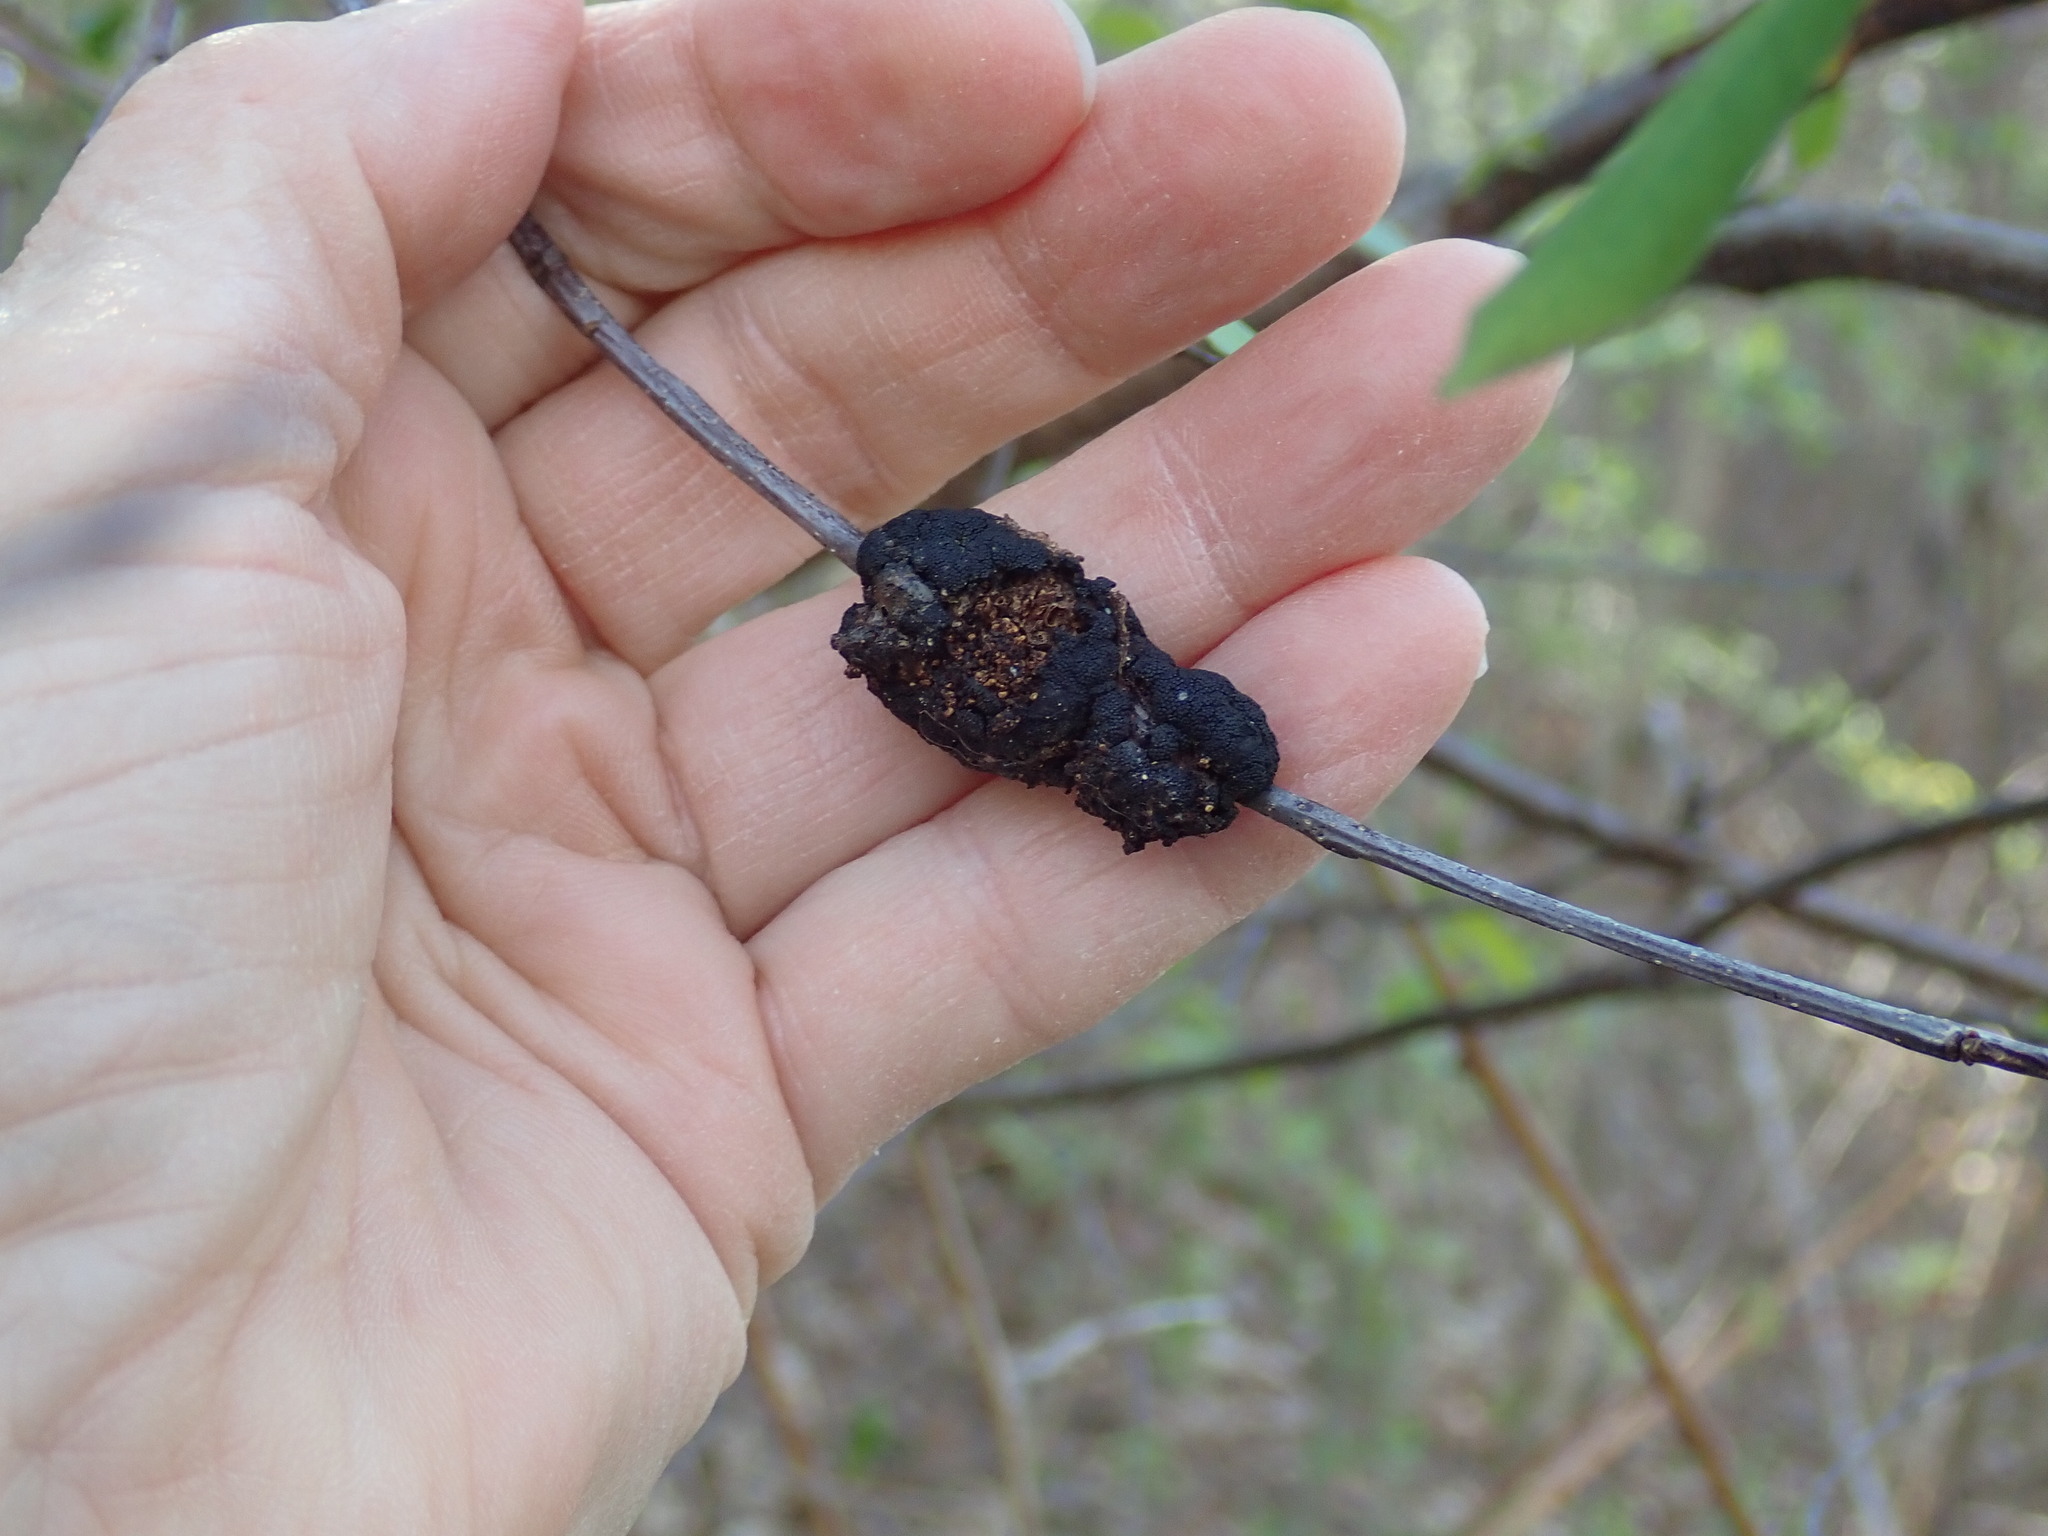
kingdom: Fungi
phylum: Ascomycota
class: Dothideomycetes
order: Venturiales
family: Venturiaceae
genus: Apiosporina
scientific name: Apiosporina morbosa
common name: Black knot
